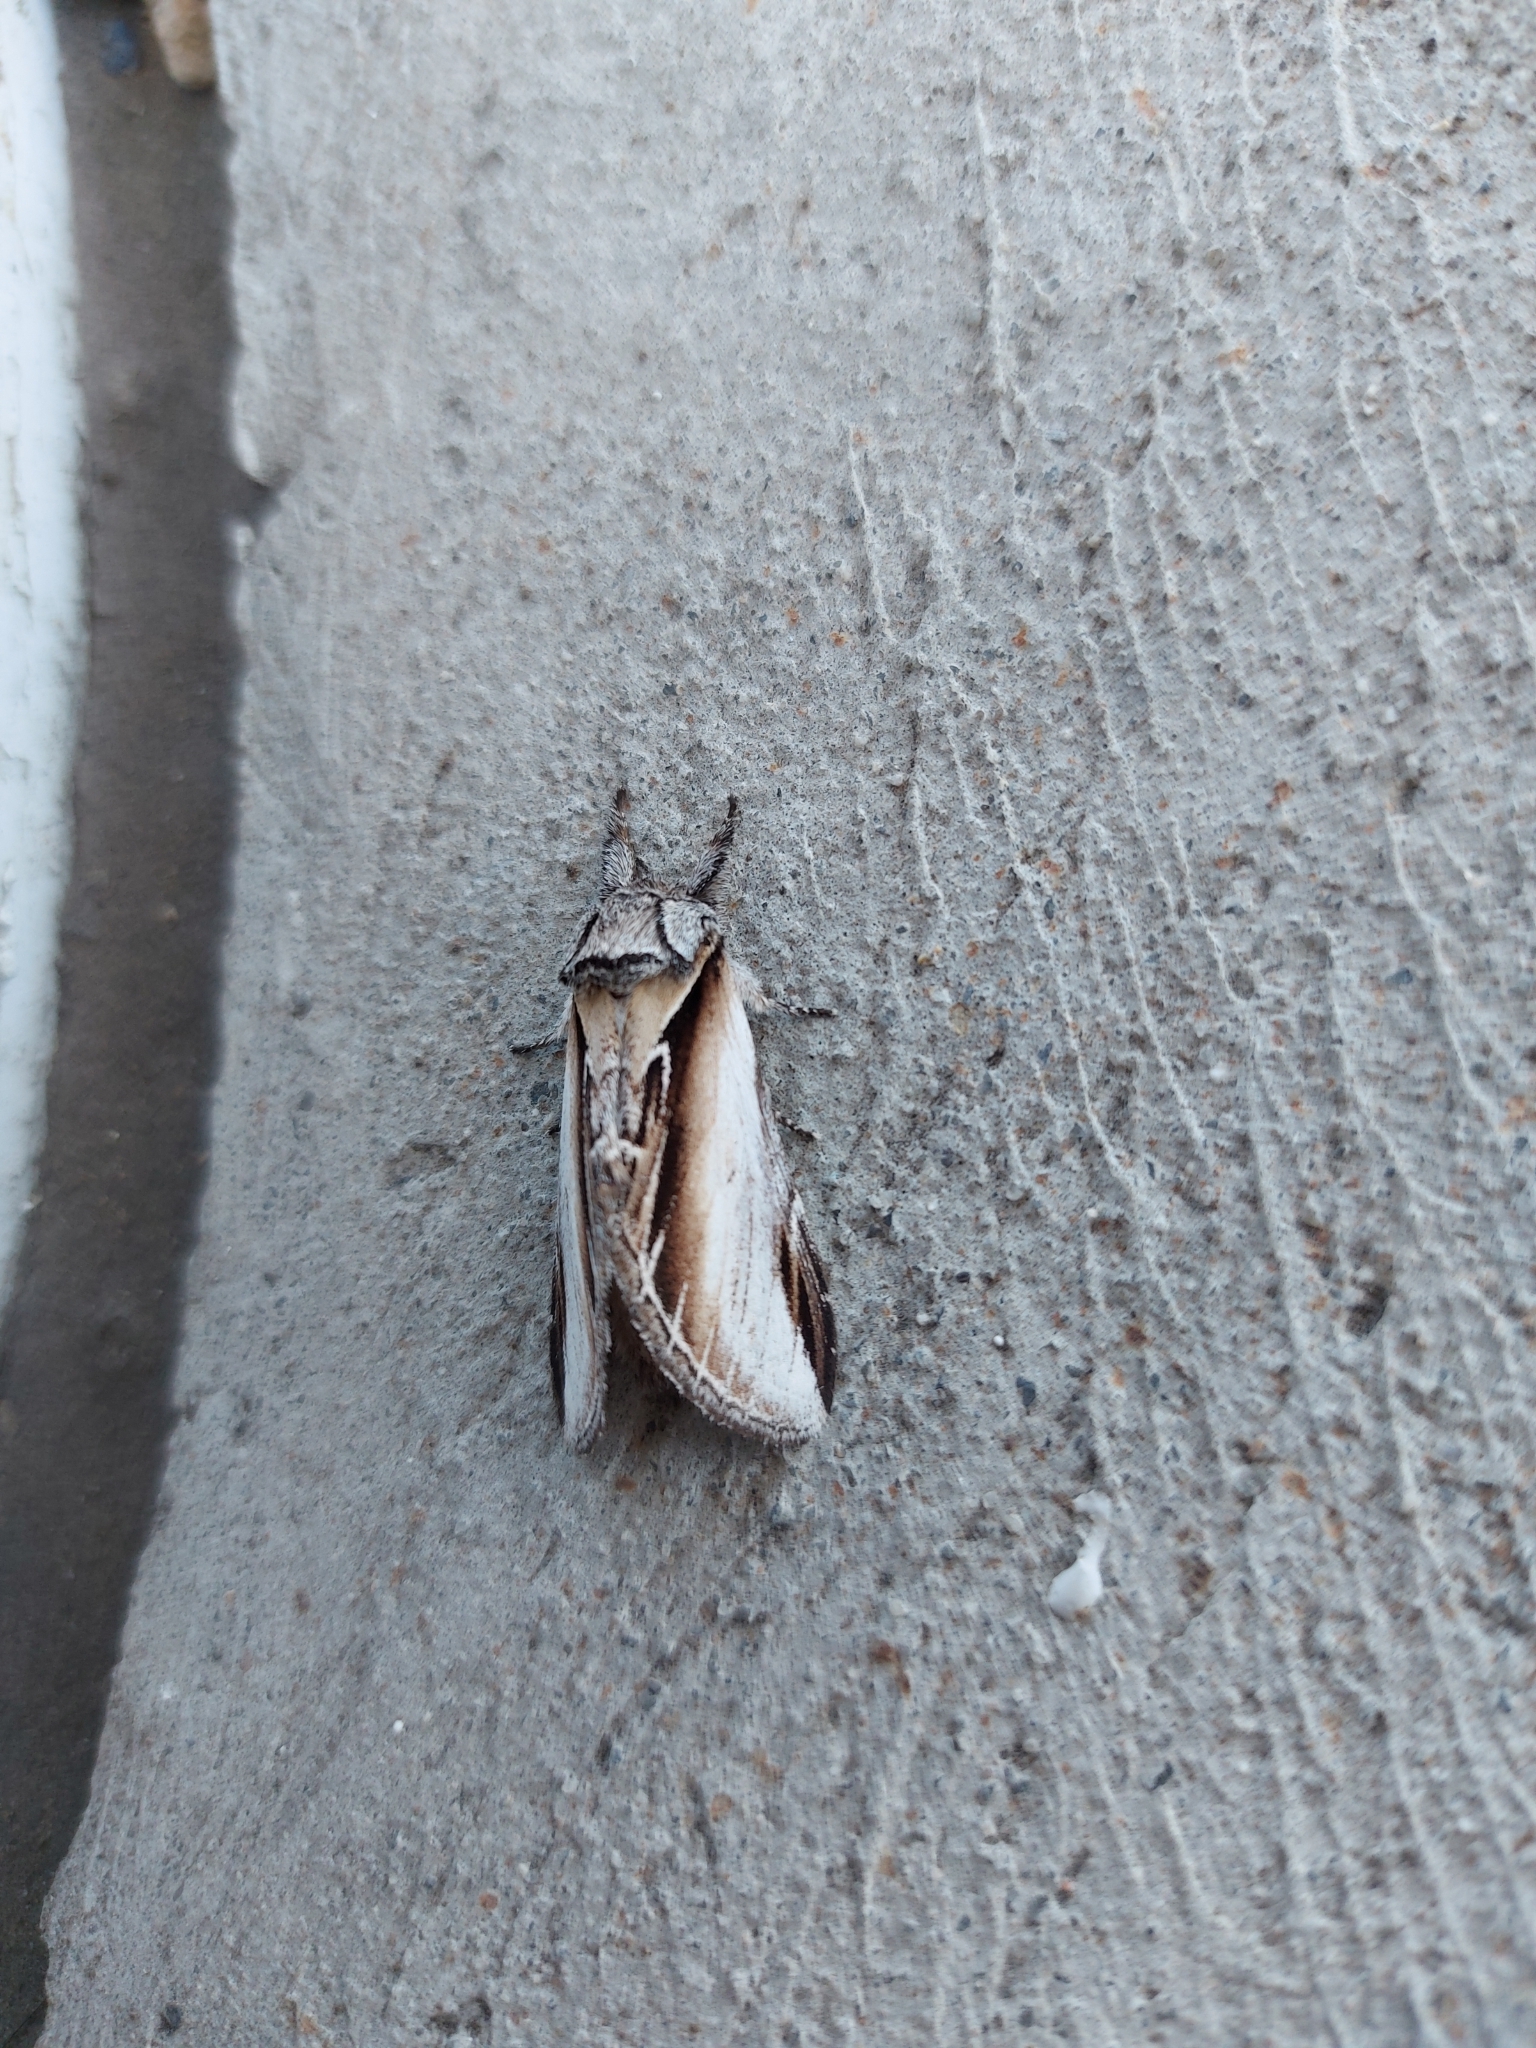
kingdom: Animalia
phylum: Arthropoda
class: Insecta
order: Lepidoptera
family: Notodontidae
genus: Pheosia
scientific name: Pheosia rimosa
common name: Black-rimmed prominent
